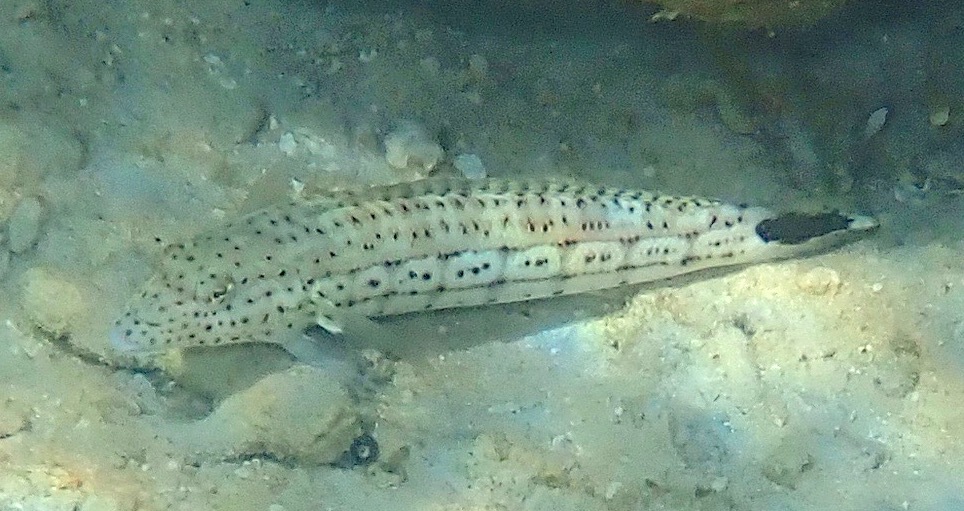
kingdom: Animalia
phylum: Chordata
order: Perciformes
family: Pinguipedidae
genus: Parapercis
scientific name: Parapercis pacifica
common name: Speckled sandperch
